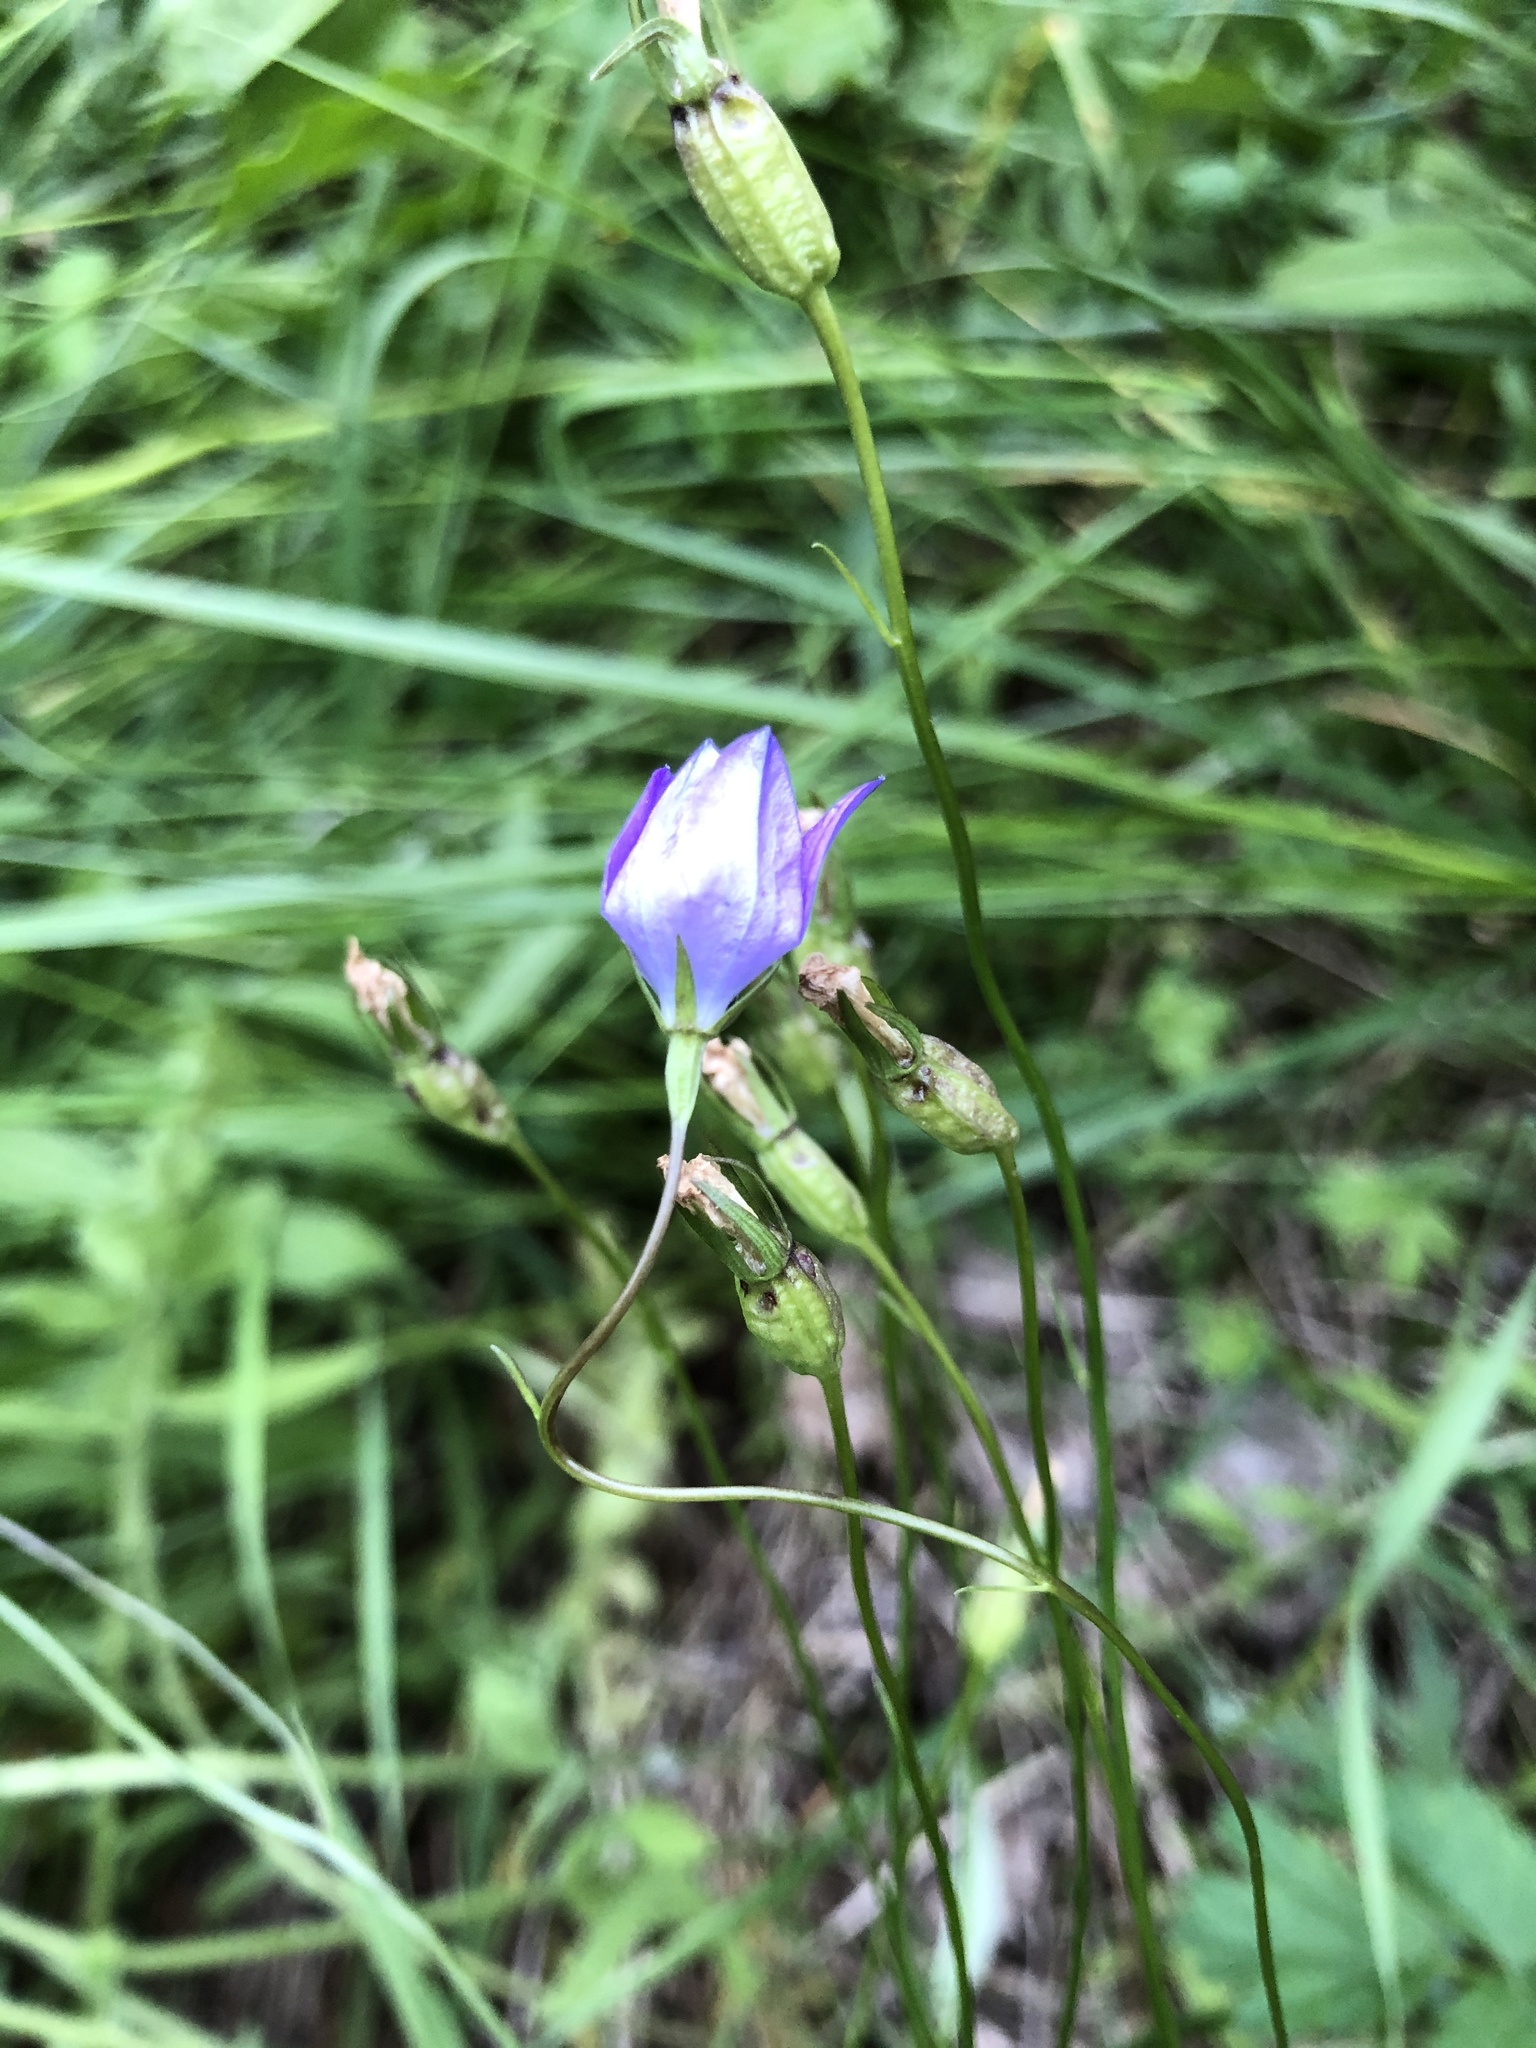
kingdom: Plantae
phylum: Tracheophyta
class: Magnoliopsida
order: Asterales
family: Campanulaceae
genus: Campanula
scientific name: Campanula stevenii
